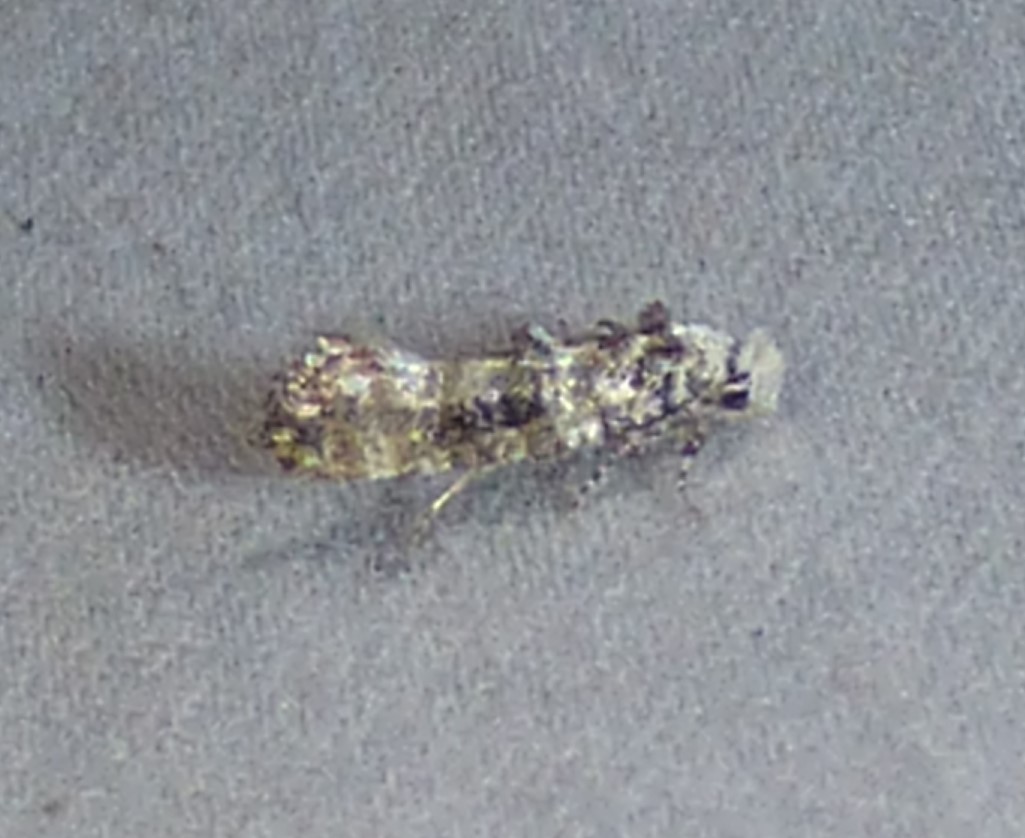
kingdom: Animalia
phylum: Arthropoda
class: Insecta
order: Lepidoptera
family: Tineidae
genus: Xylesthia
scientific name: Xylesthia pruniramiella
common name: Clemens' bark moth
